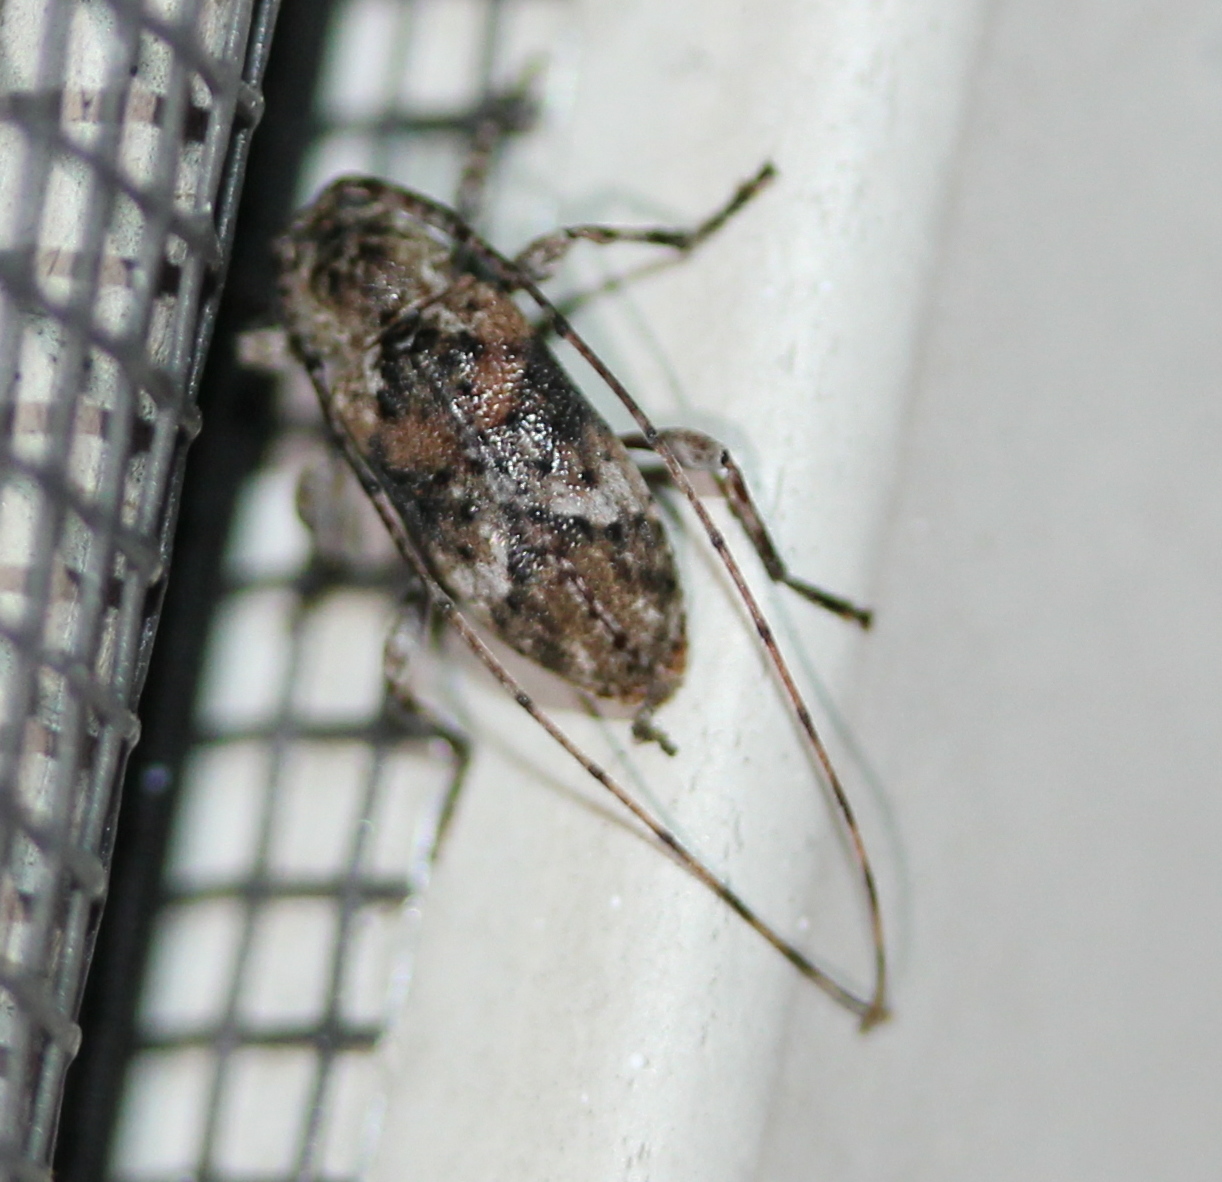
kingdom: Animalia
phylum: Arthropoda
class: Insecta
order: Coleoptera
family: Cerambycidae
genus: Sternidius
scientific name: Sternidius alpha
